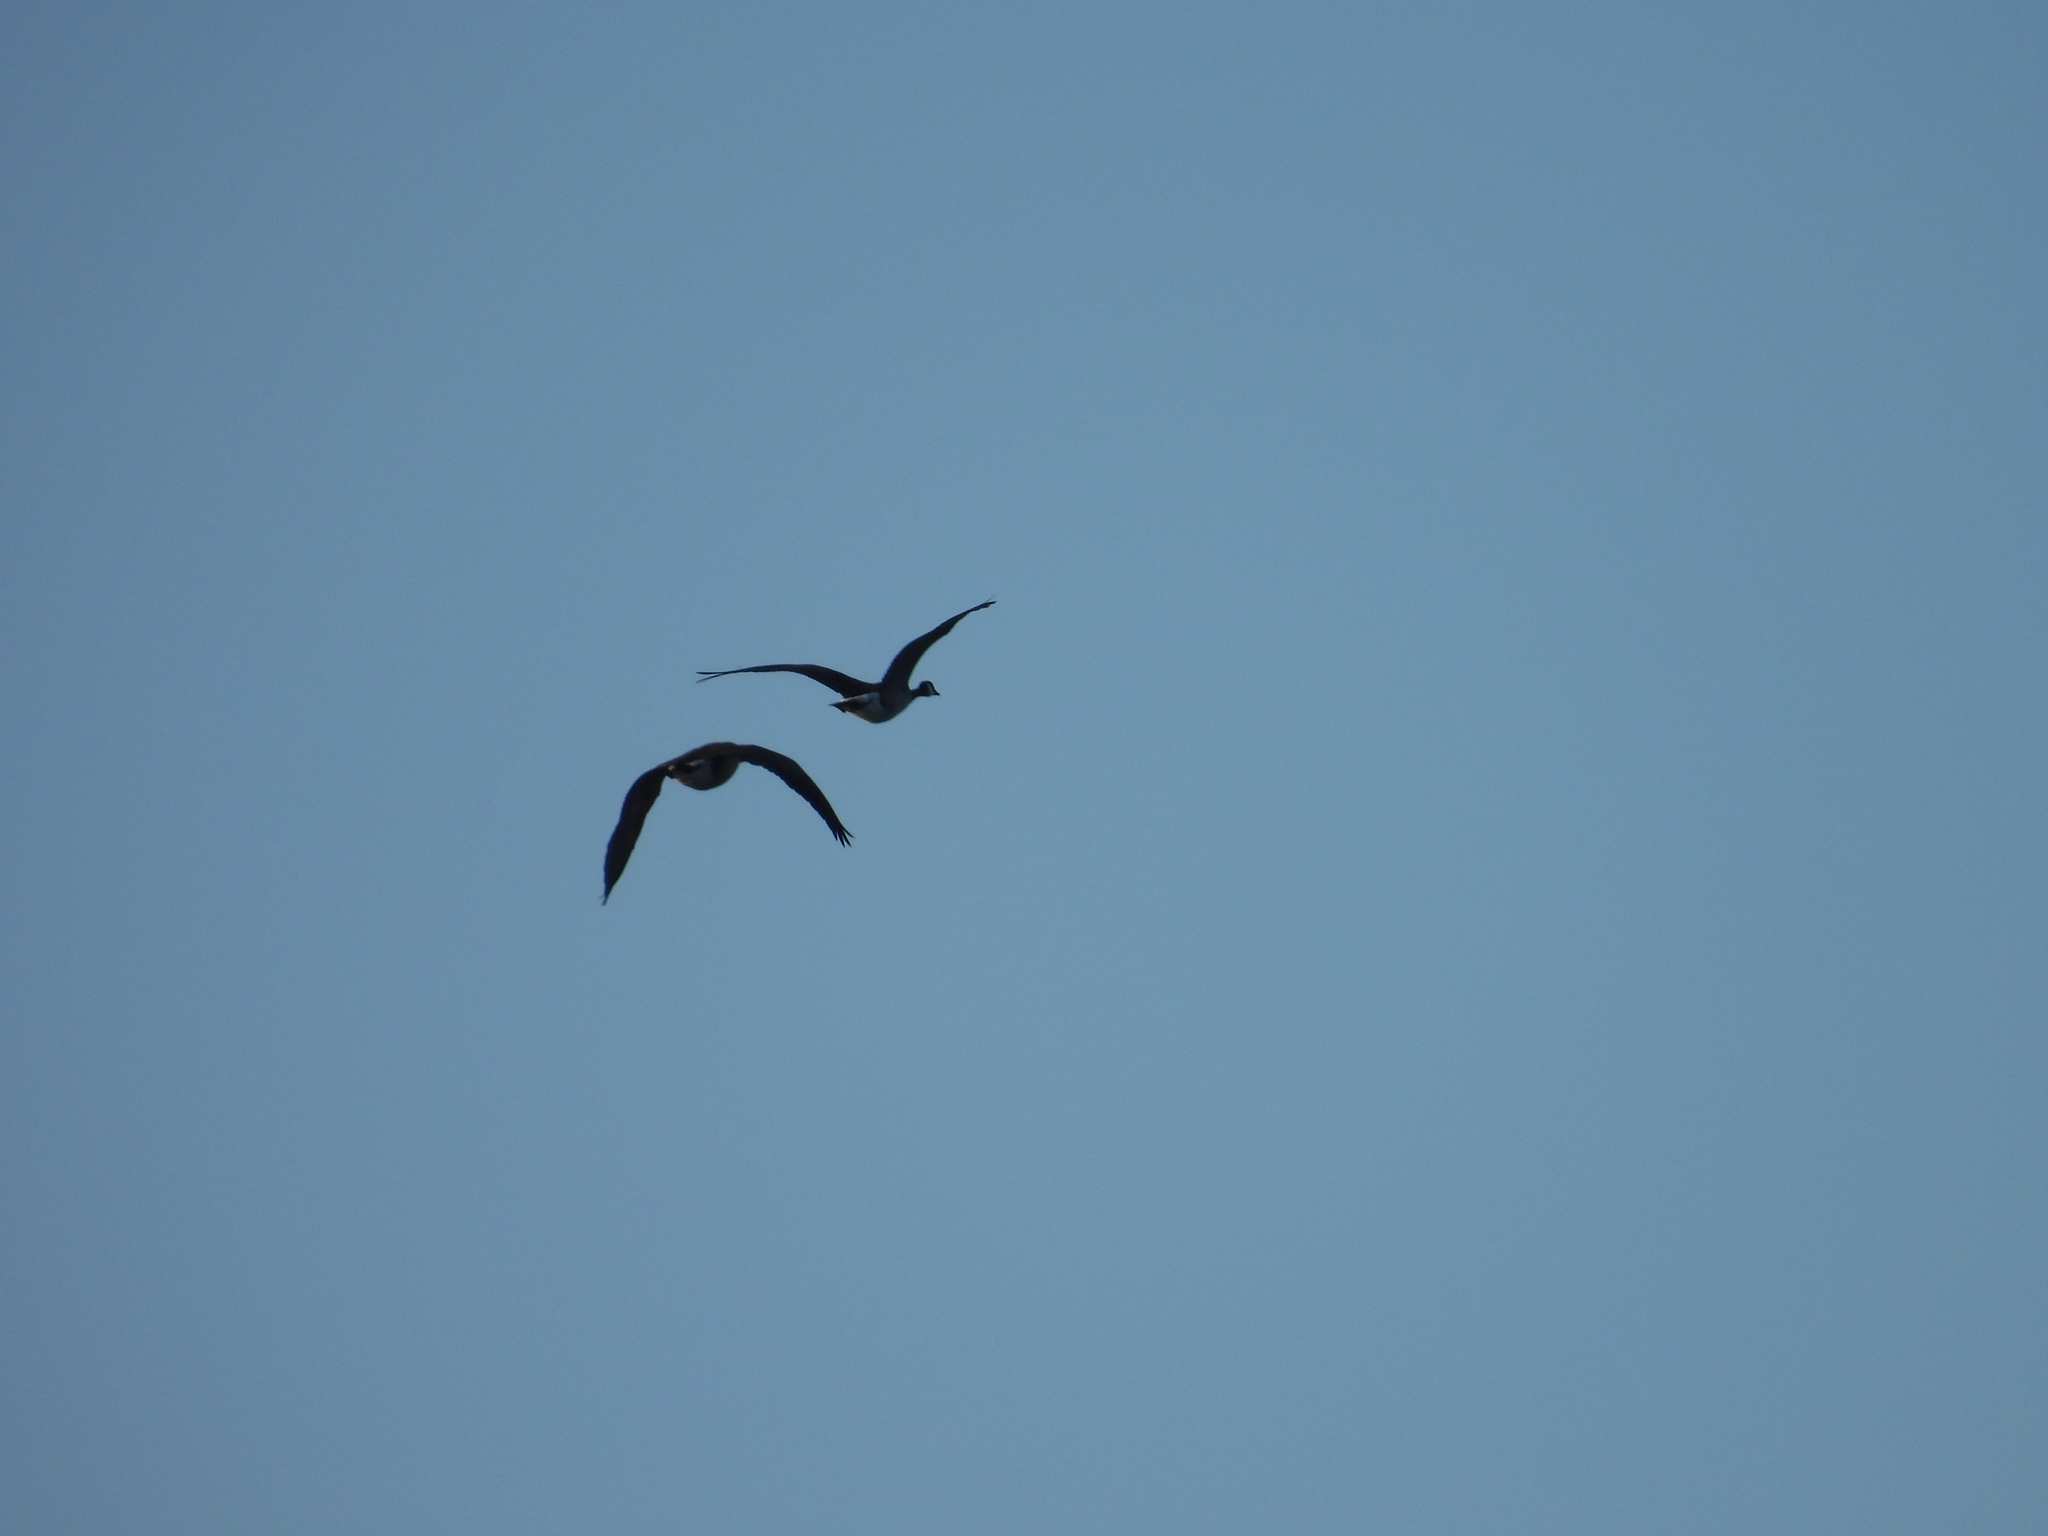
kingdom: Animalia
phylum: Chordata
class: Aves
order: Anseriformes
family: Anatidae
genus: Branta
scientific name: Branta canadensis
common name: Canada goose
